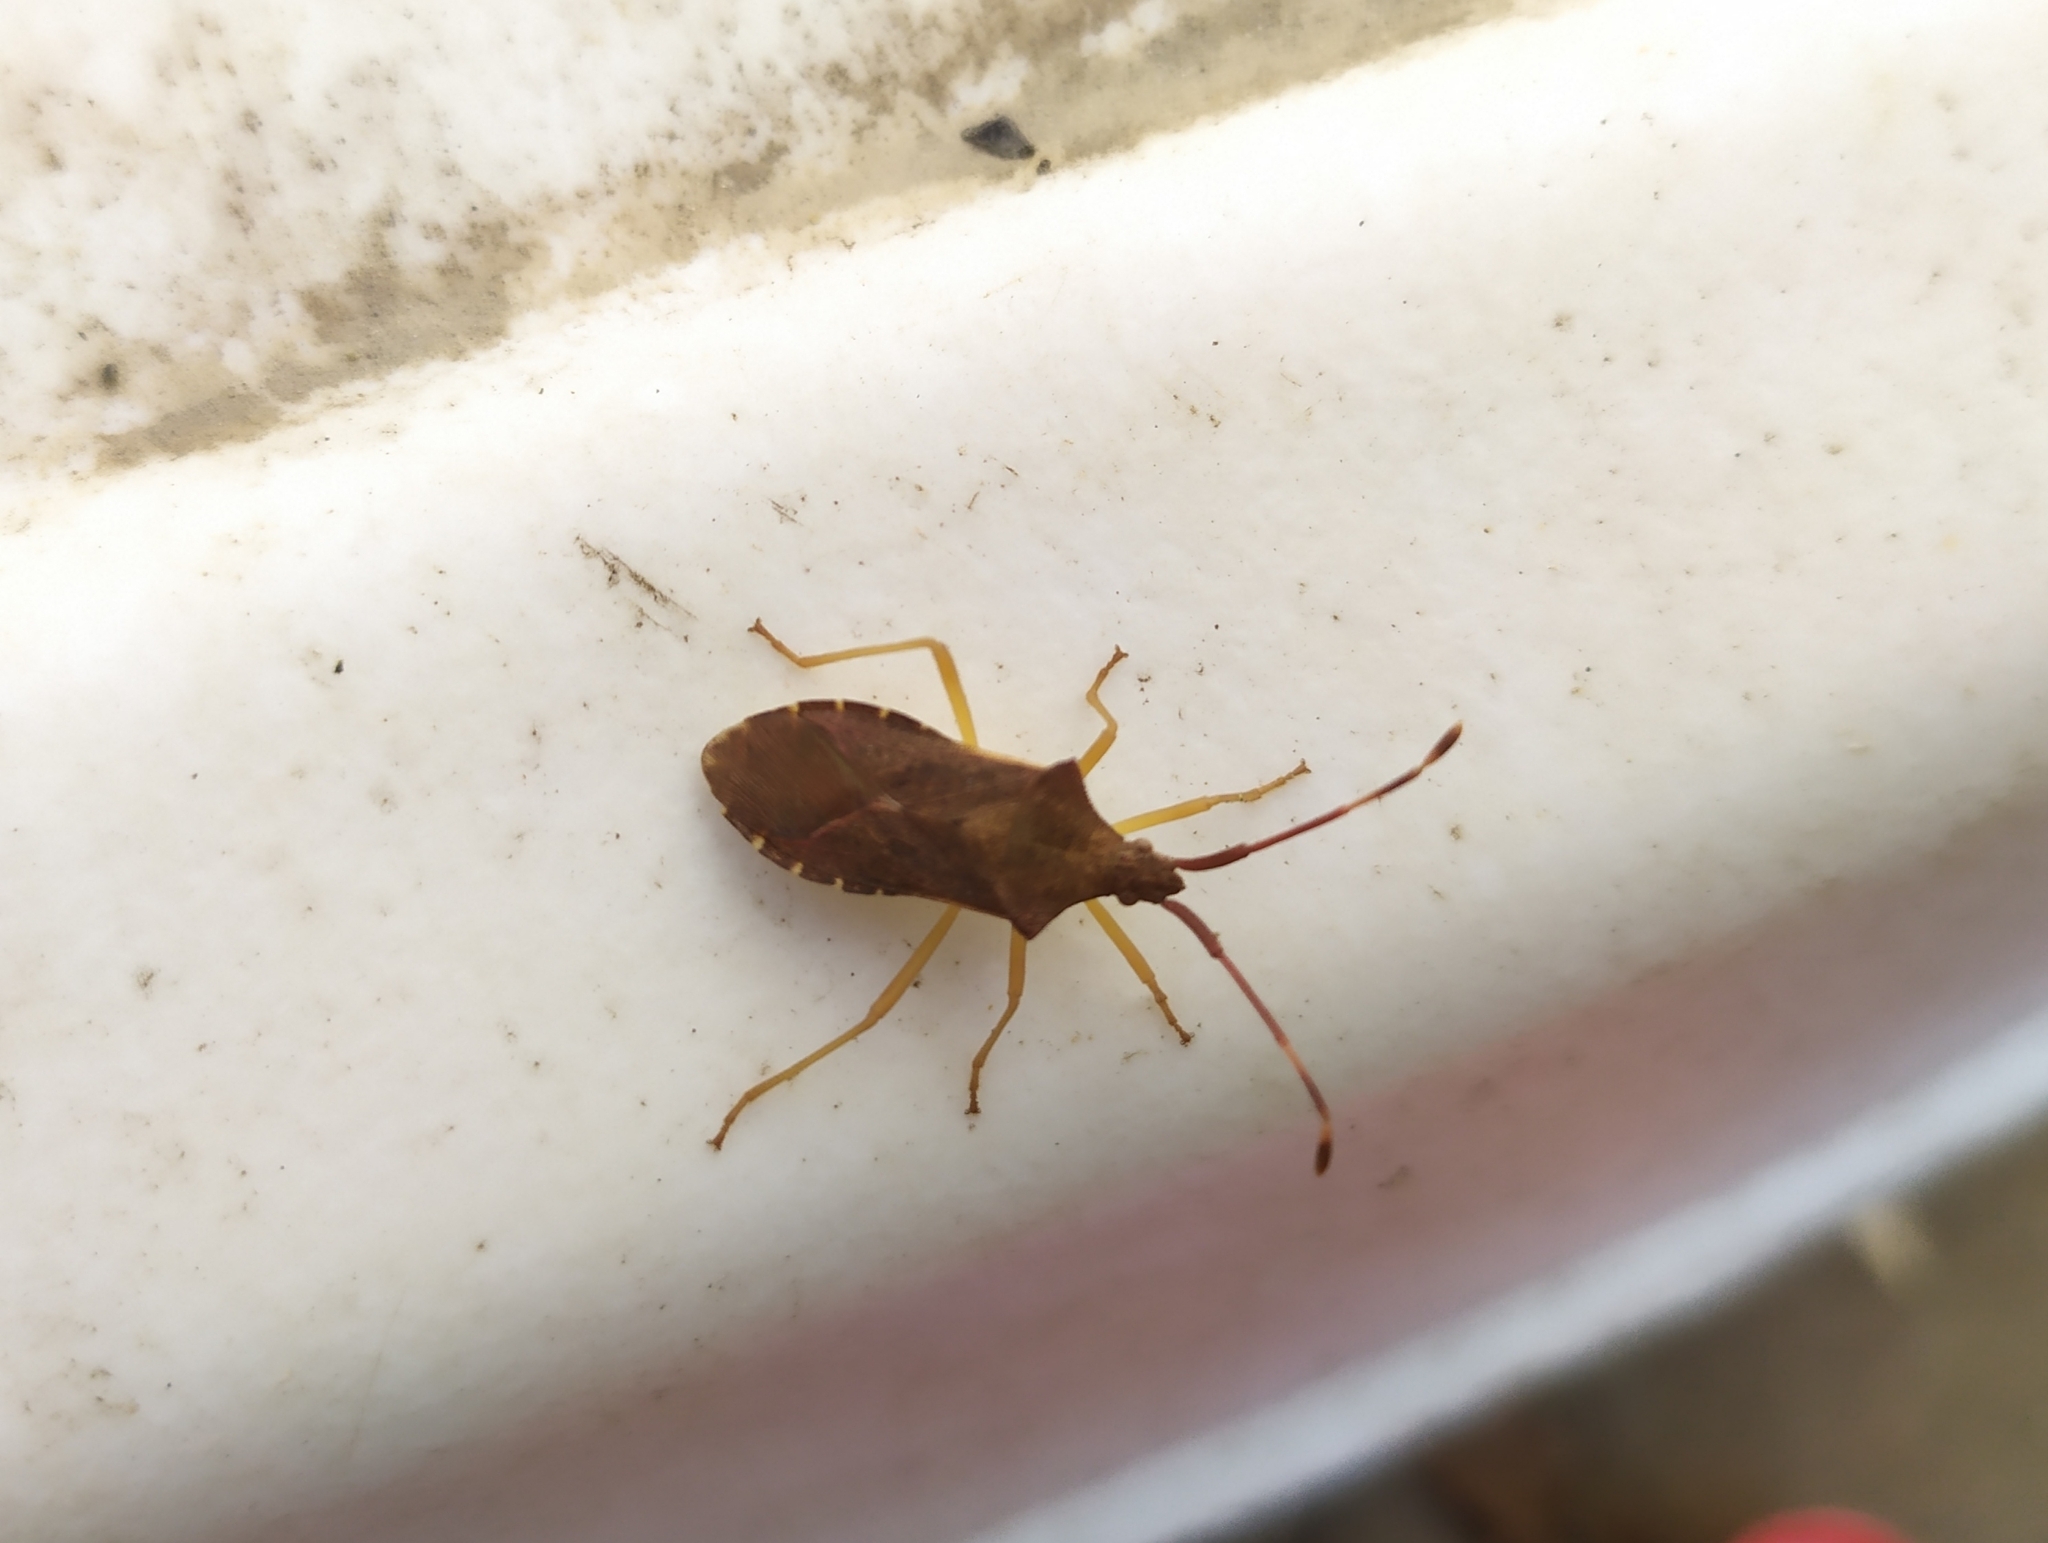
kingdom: Animalia
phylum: Arthropoda
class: Insecta
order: Hemiptera
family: Coreidae
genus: Gonocerus
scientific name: Gonocerus acuteangulatus
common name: Box bug
